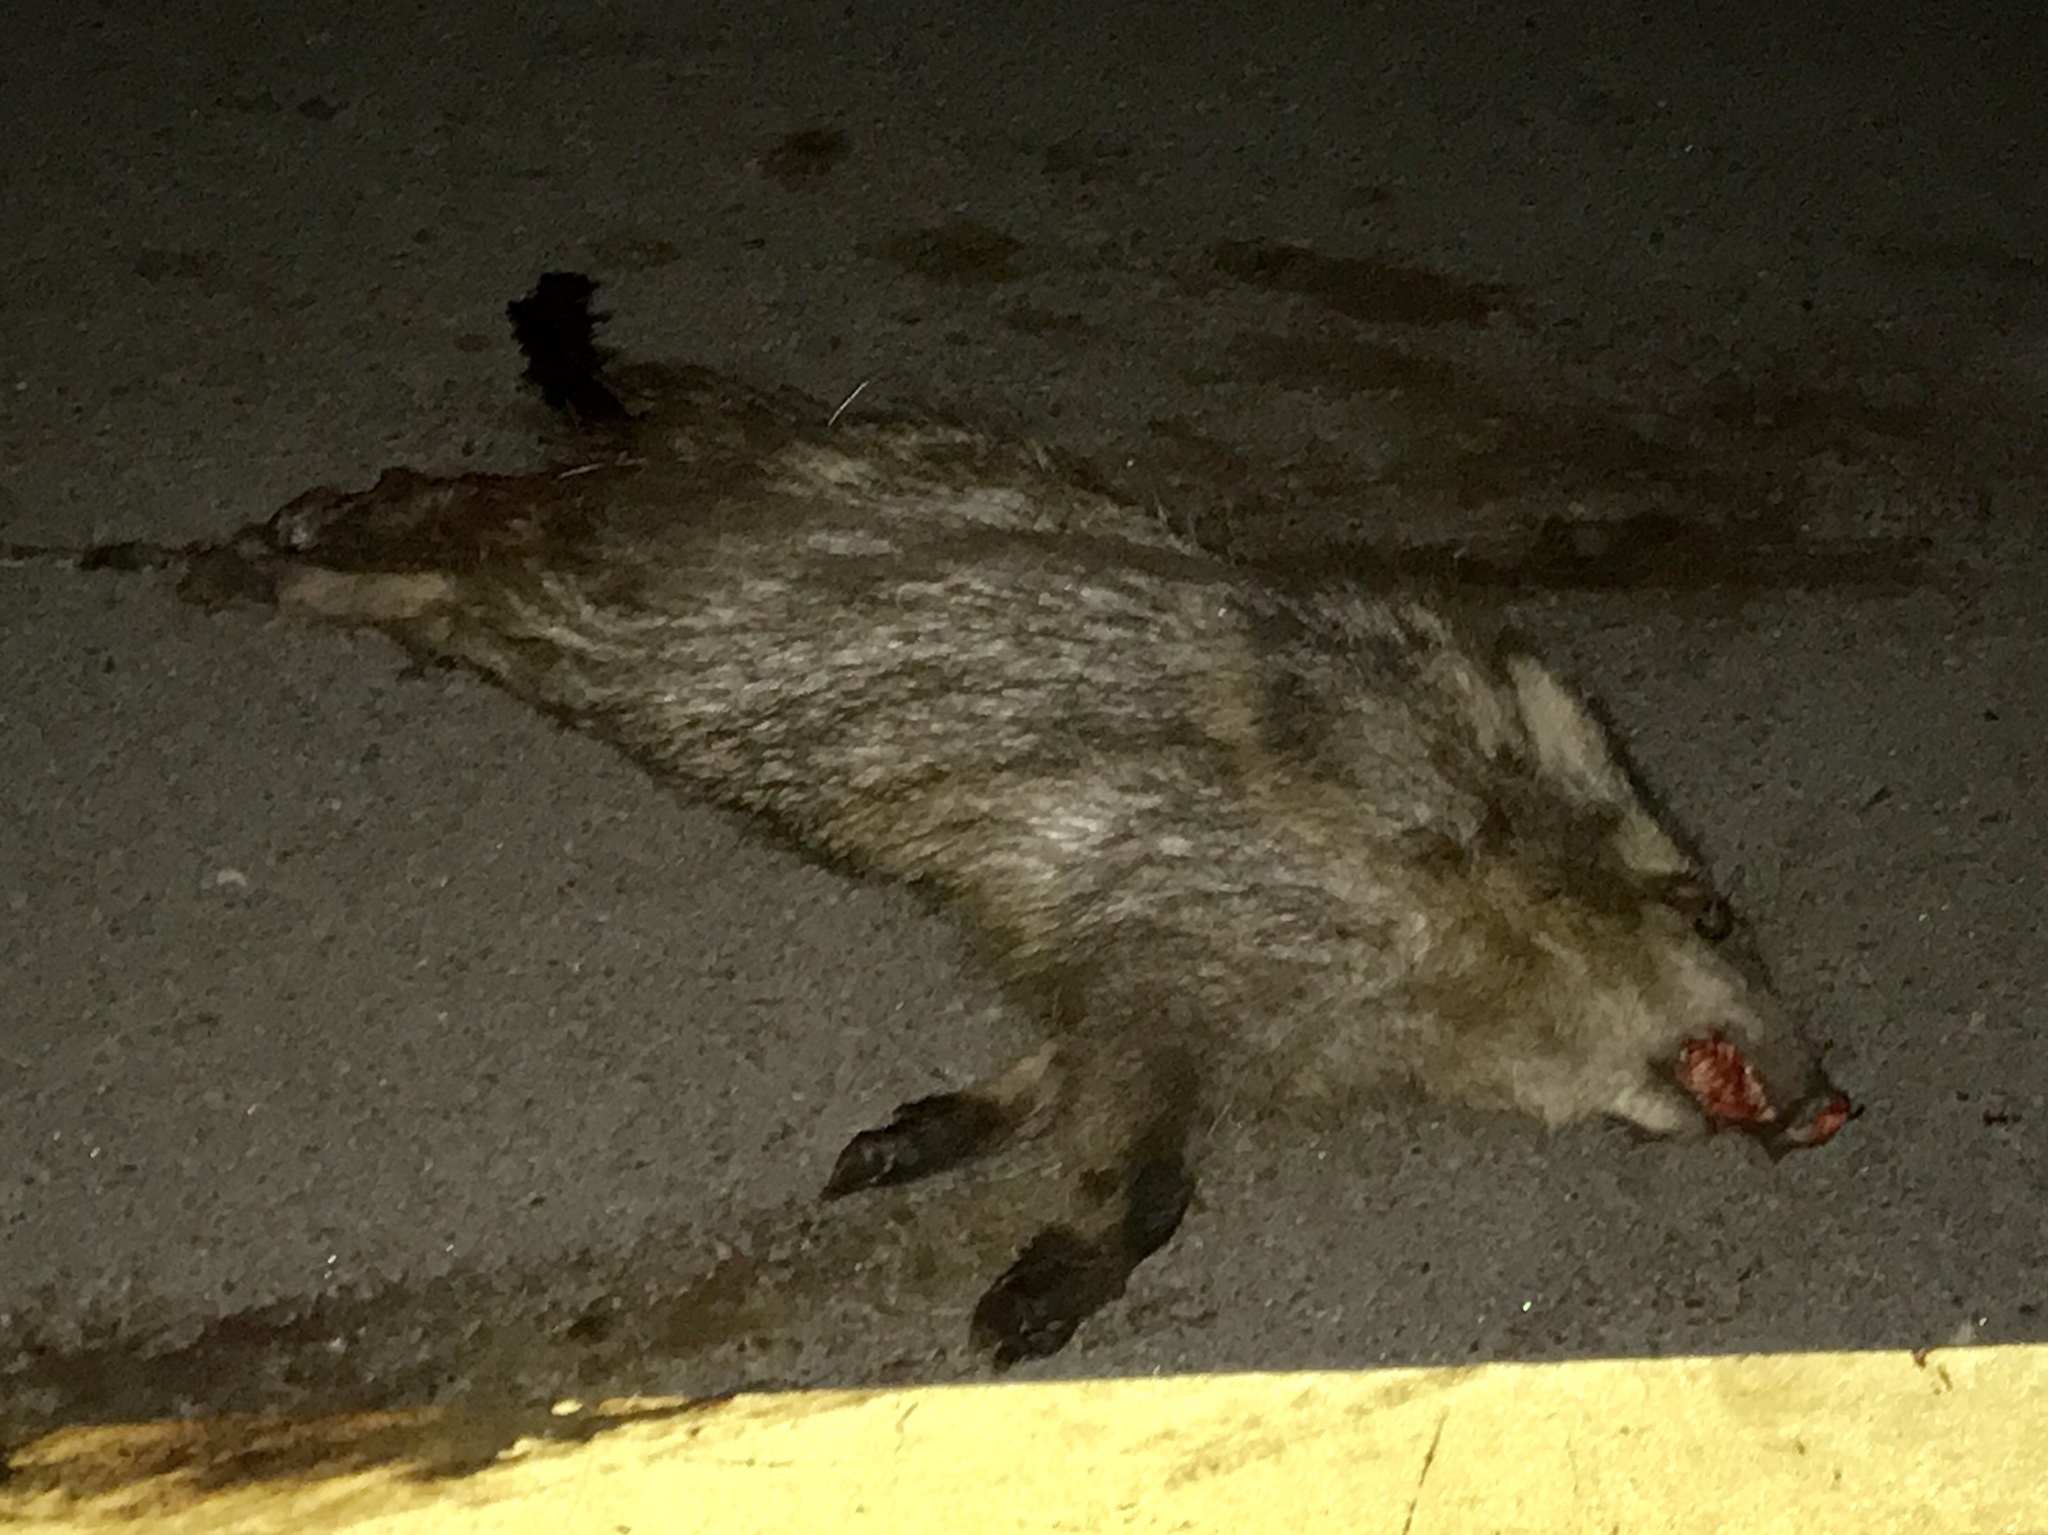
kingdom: Animalia
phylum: Chordata
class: Mammalia
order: Artiodactyla
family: Tayassuidae
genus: Pecari
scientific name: Pecari tajacu
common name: Collared peccary
